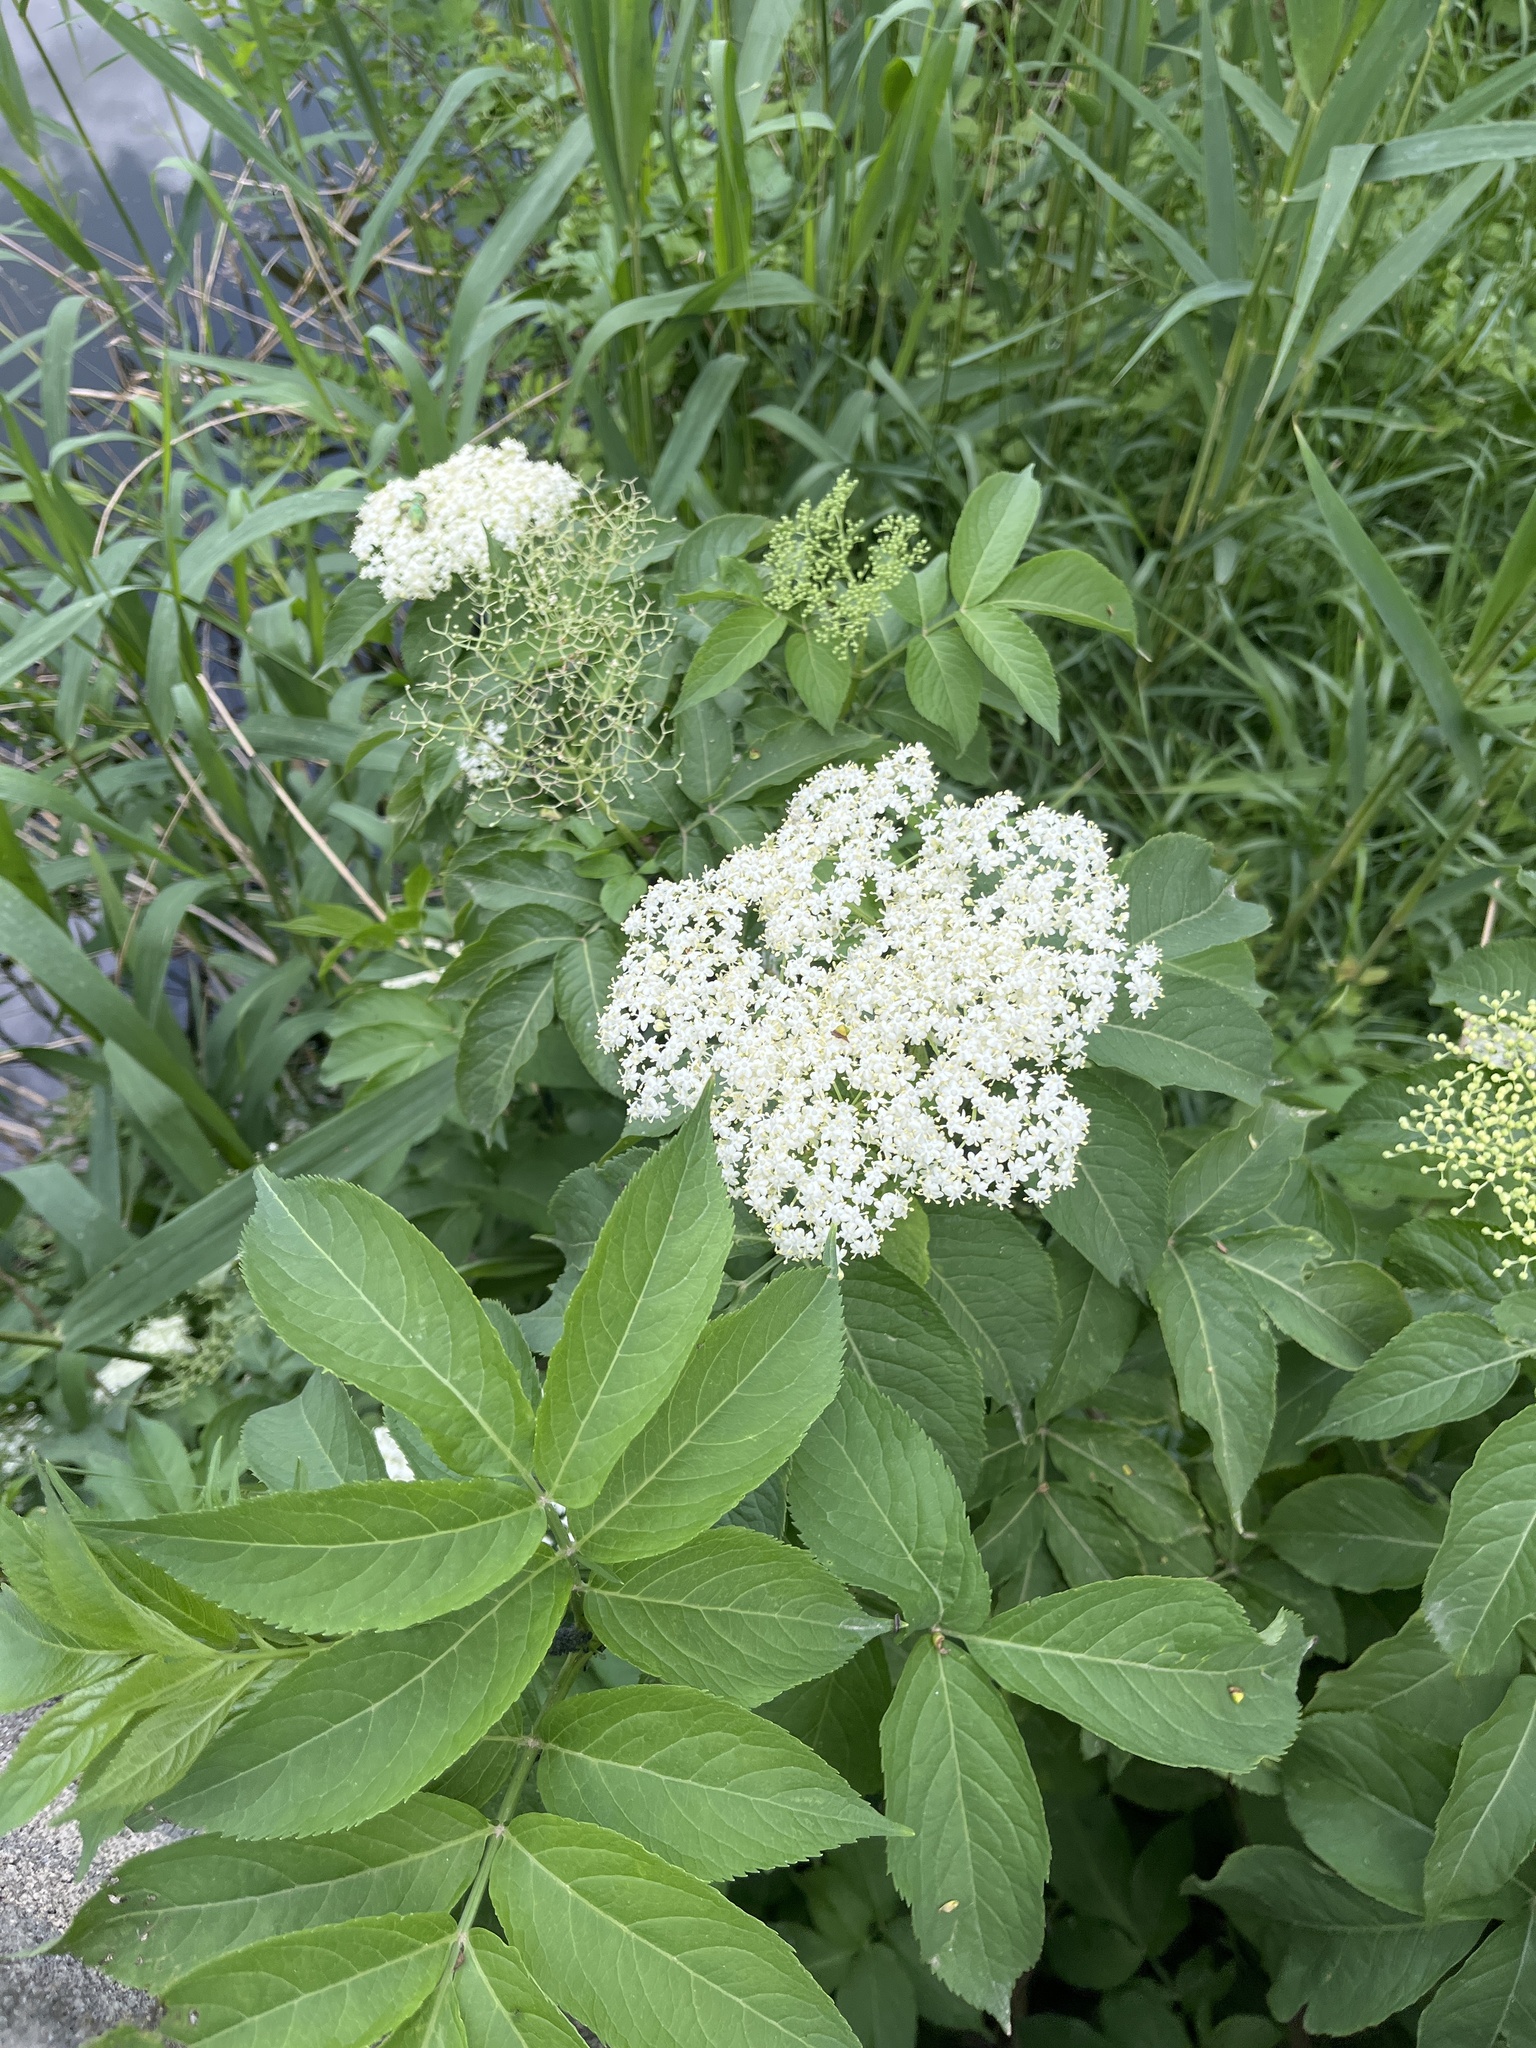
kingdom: Plantae
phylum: Tracheophyta
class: Magnoliopsida
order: Dipsacales
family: Viburnaceae
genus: Sambucus
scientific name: Sambucus nigra
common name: Elder
